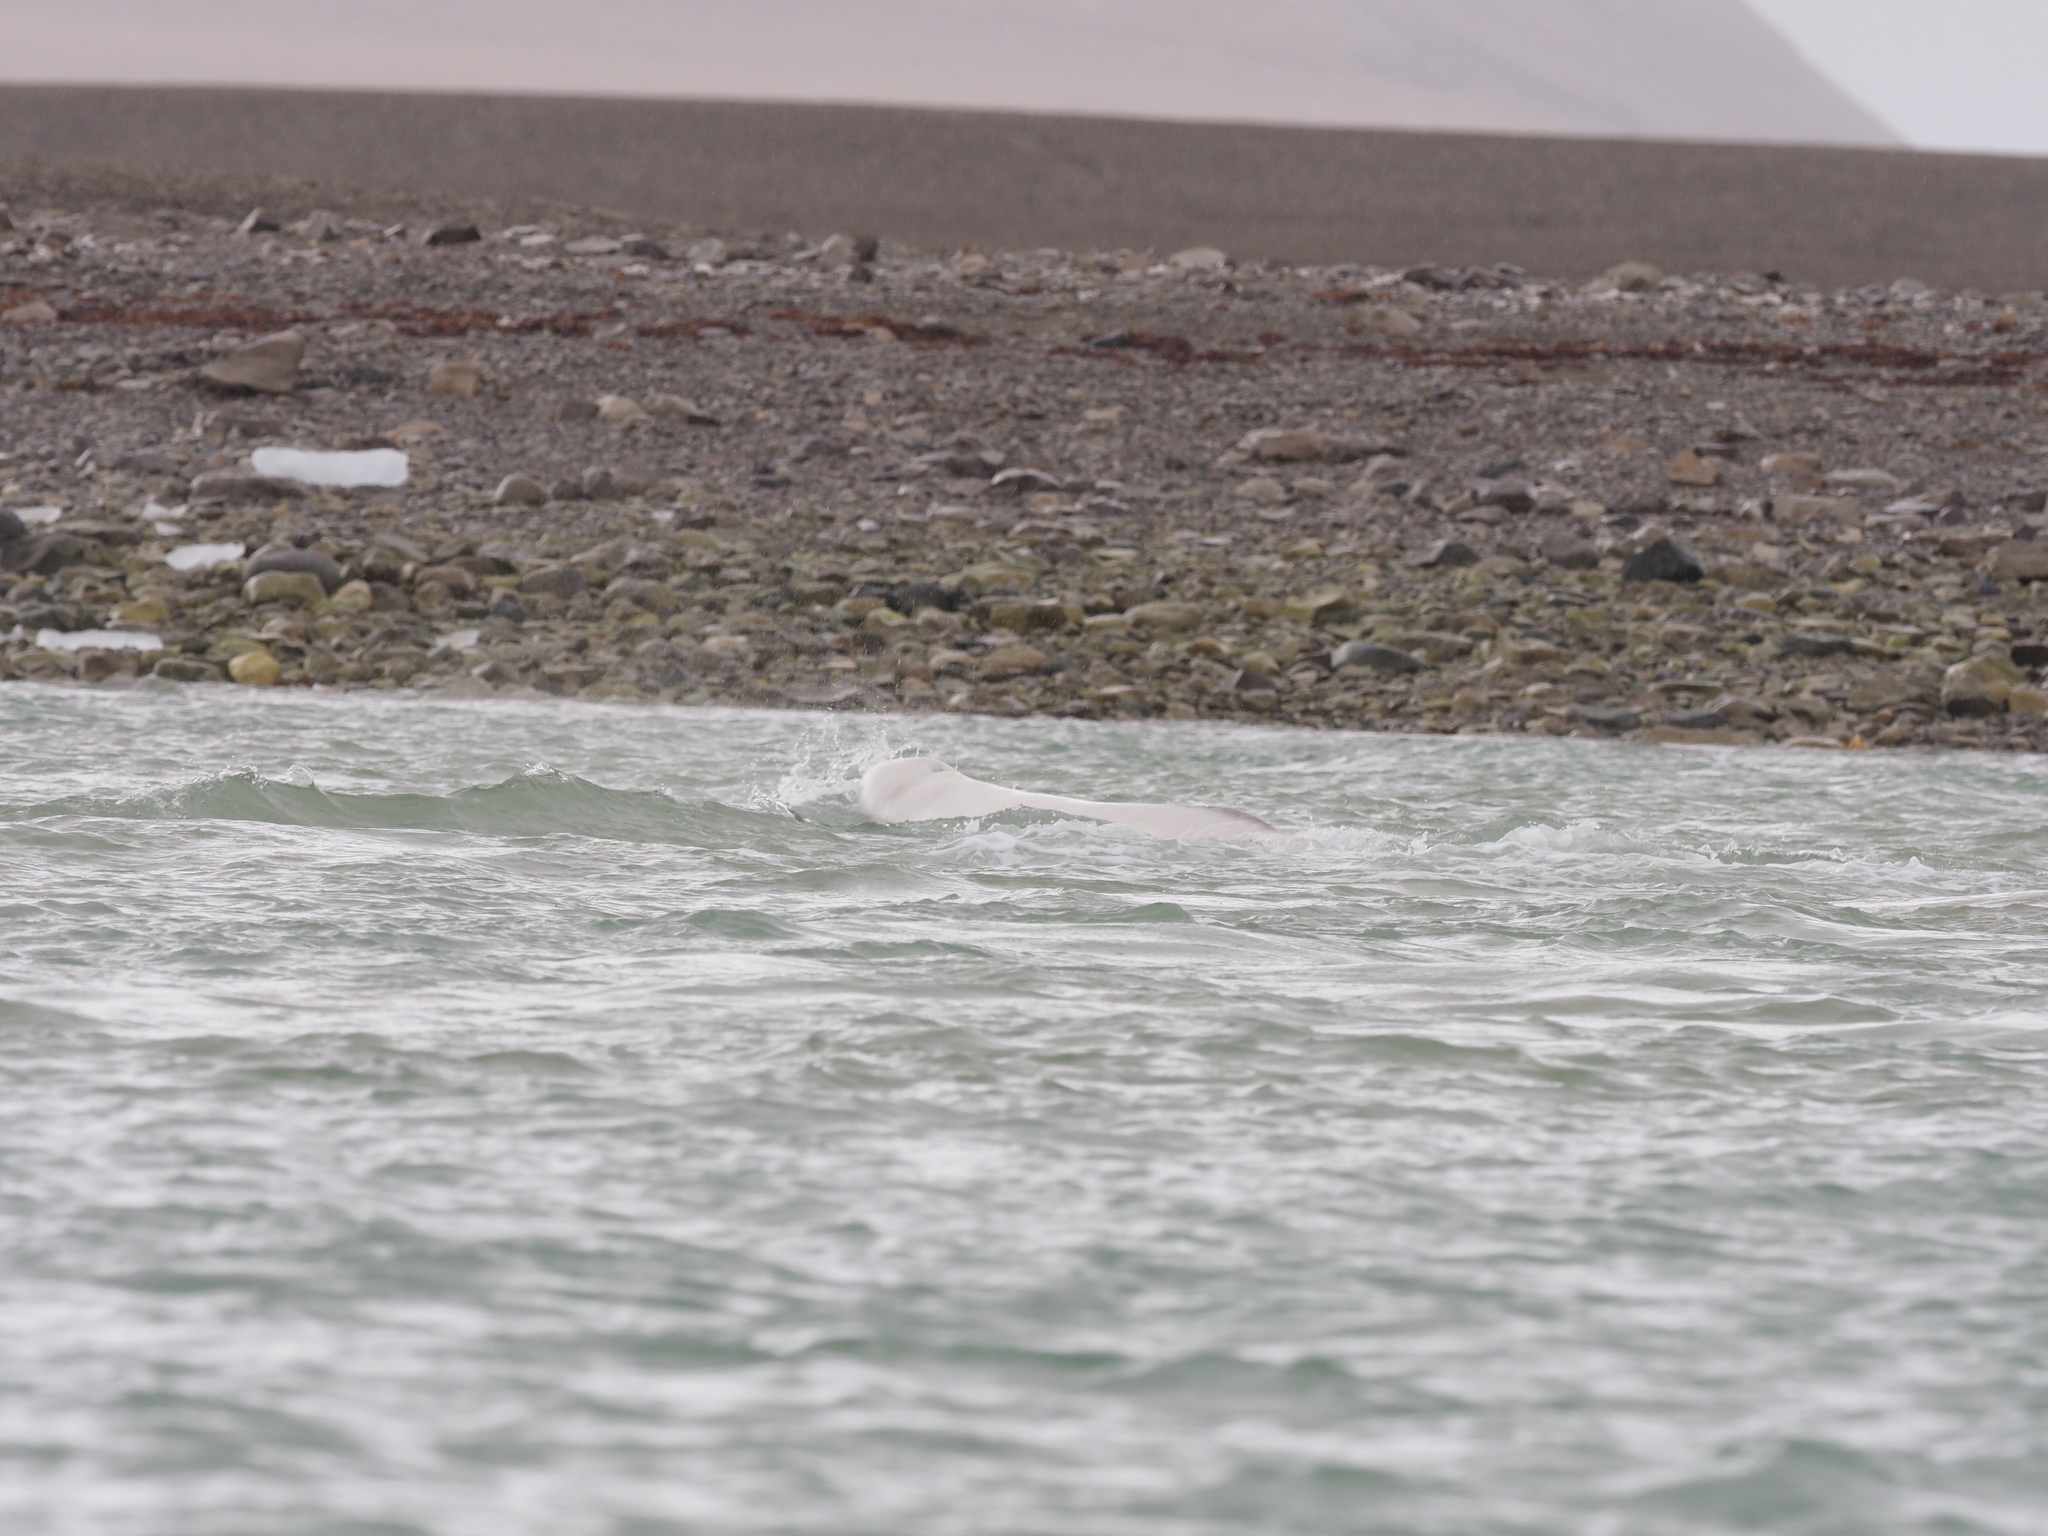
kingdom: Animalia
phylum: Chordata
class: Mammalia
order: Cetacea
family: Monodontidae
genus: Delphinapterus
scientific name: Delphinapterus leucas
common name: Beluga
